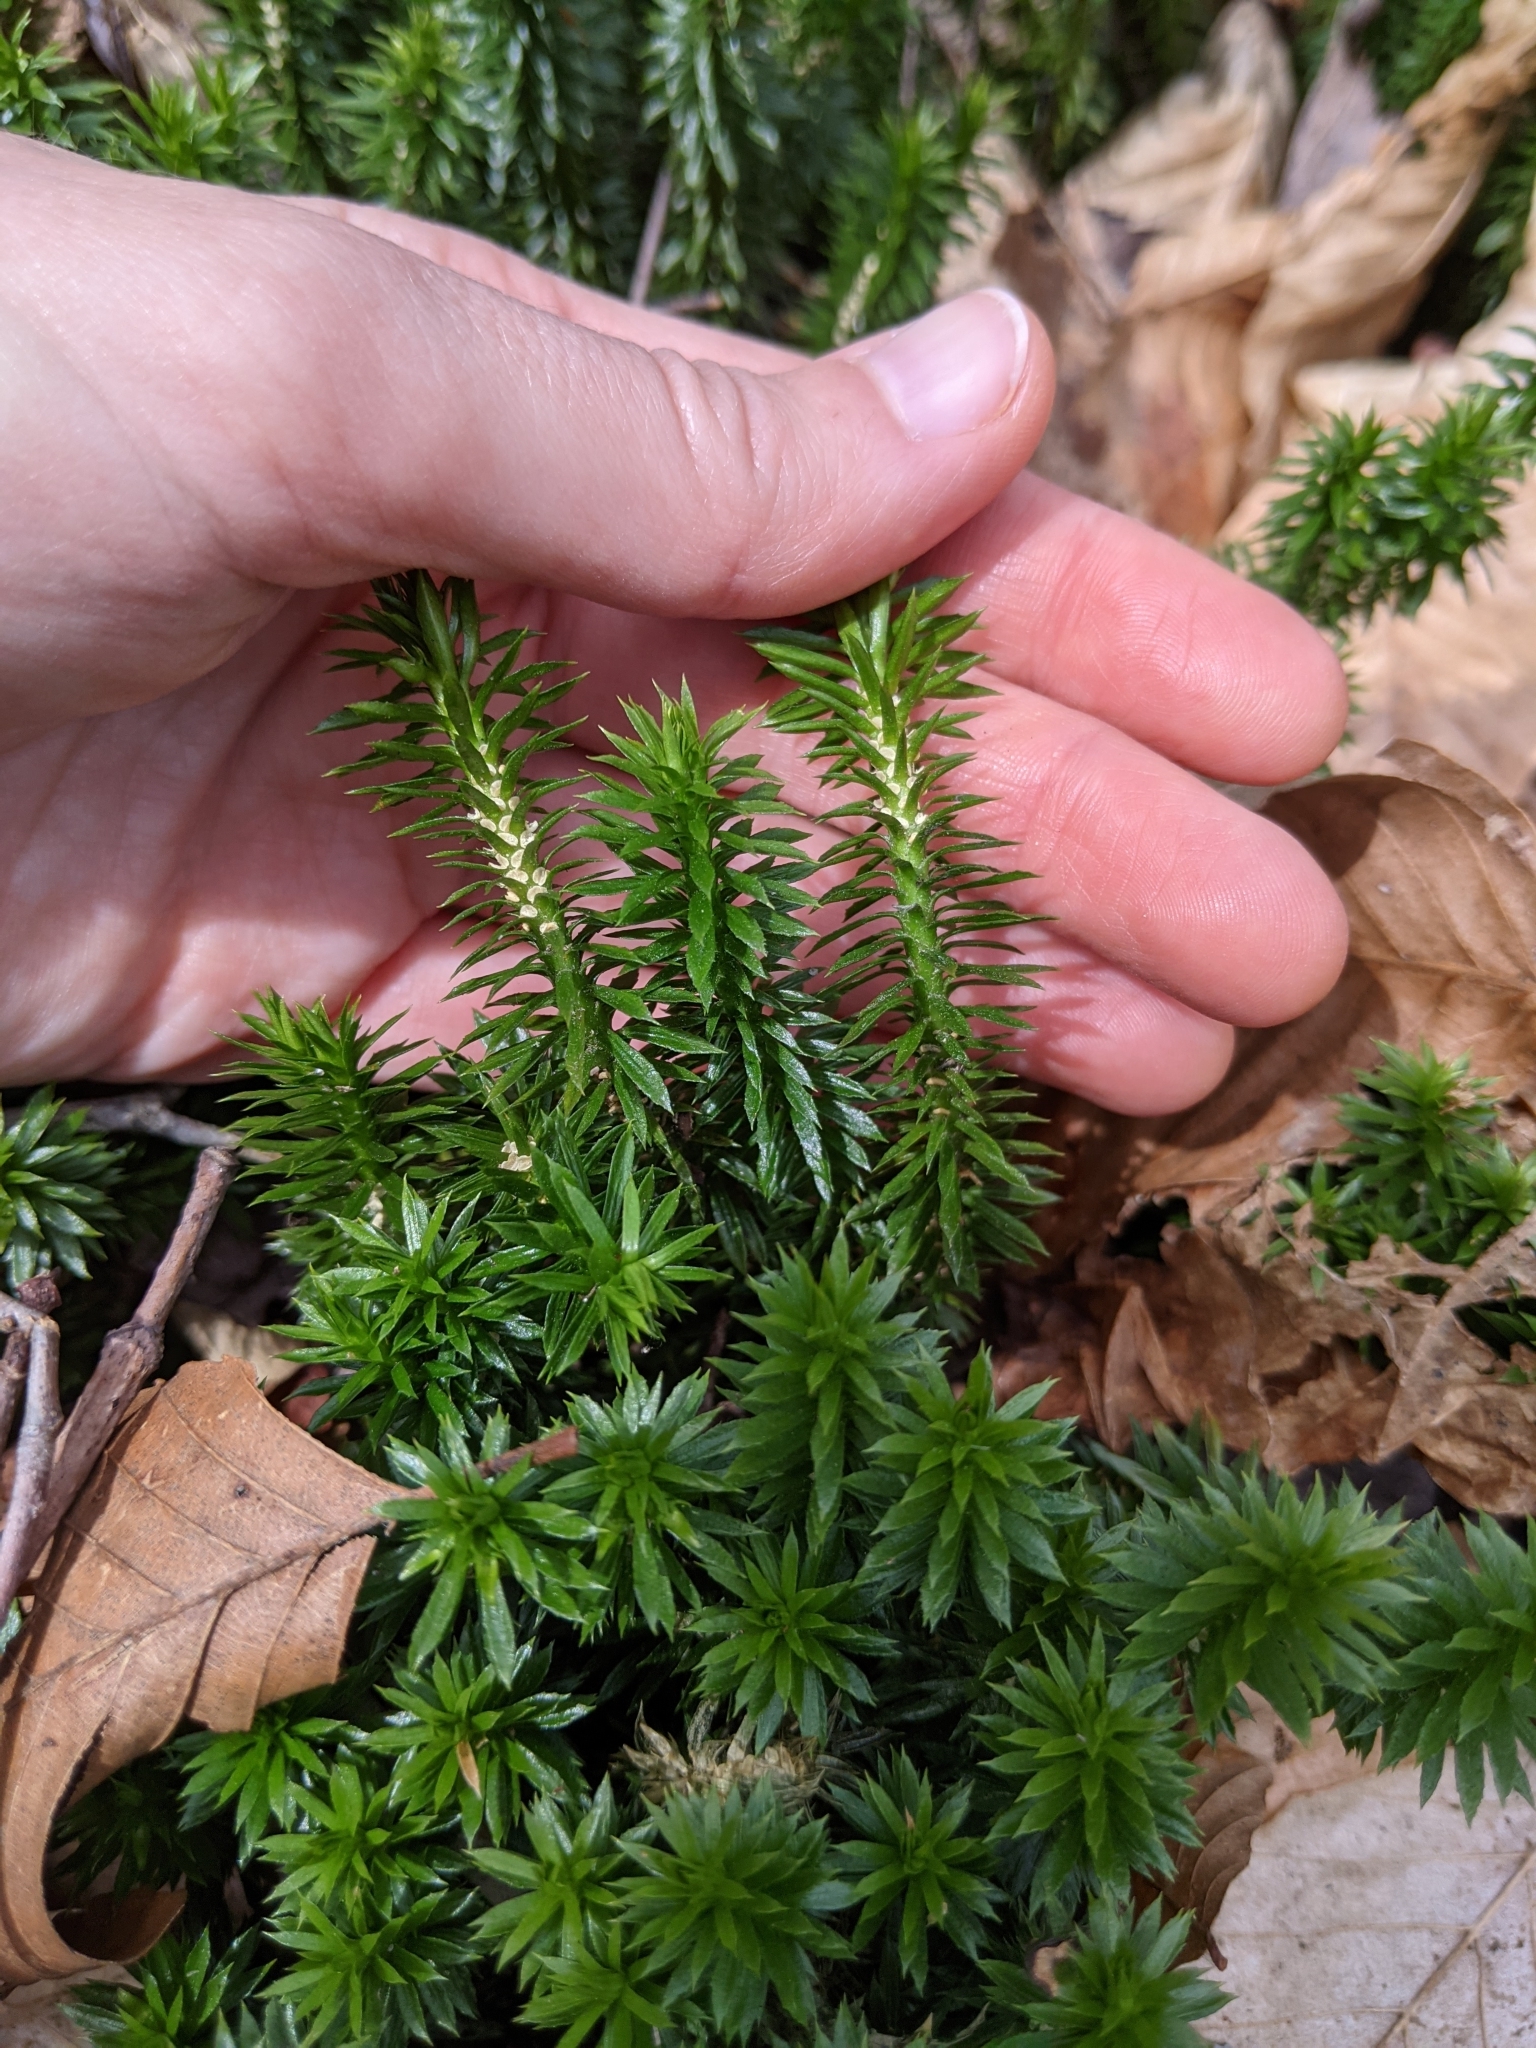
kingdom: Plantae
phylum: Tracheophyta
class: Lycopodiopsida
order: Lycopodiales
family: Lycopodiaceae
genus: Huperzia
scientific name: Huperzia lucidula
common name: Shining clubmoss
